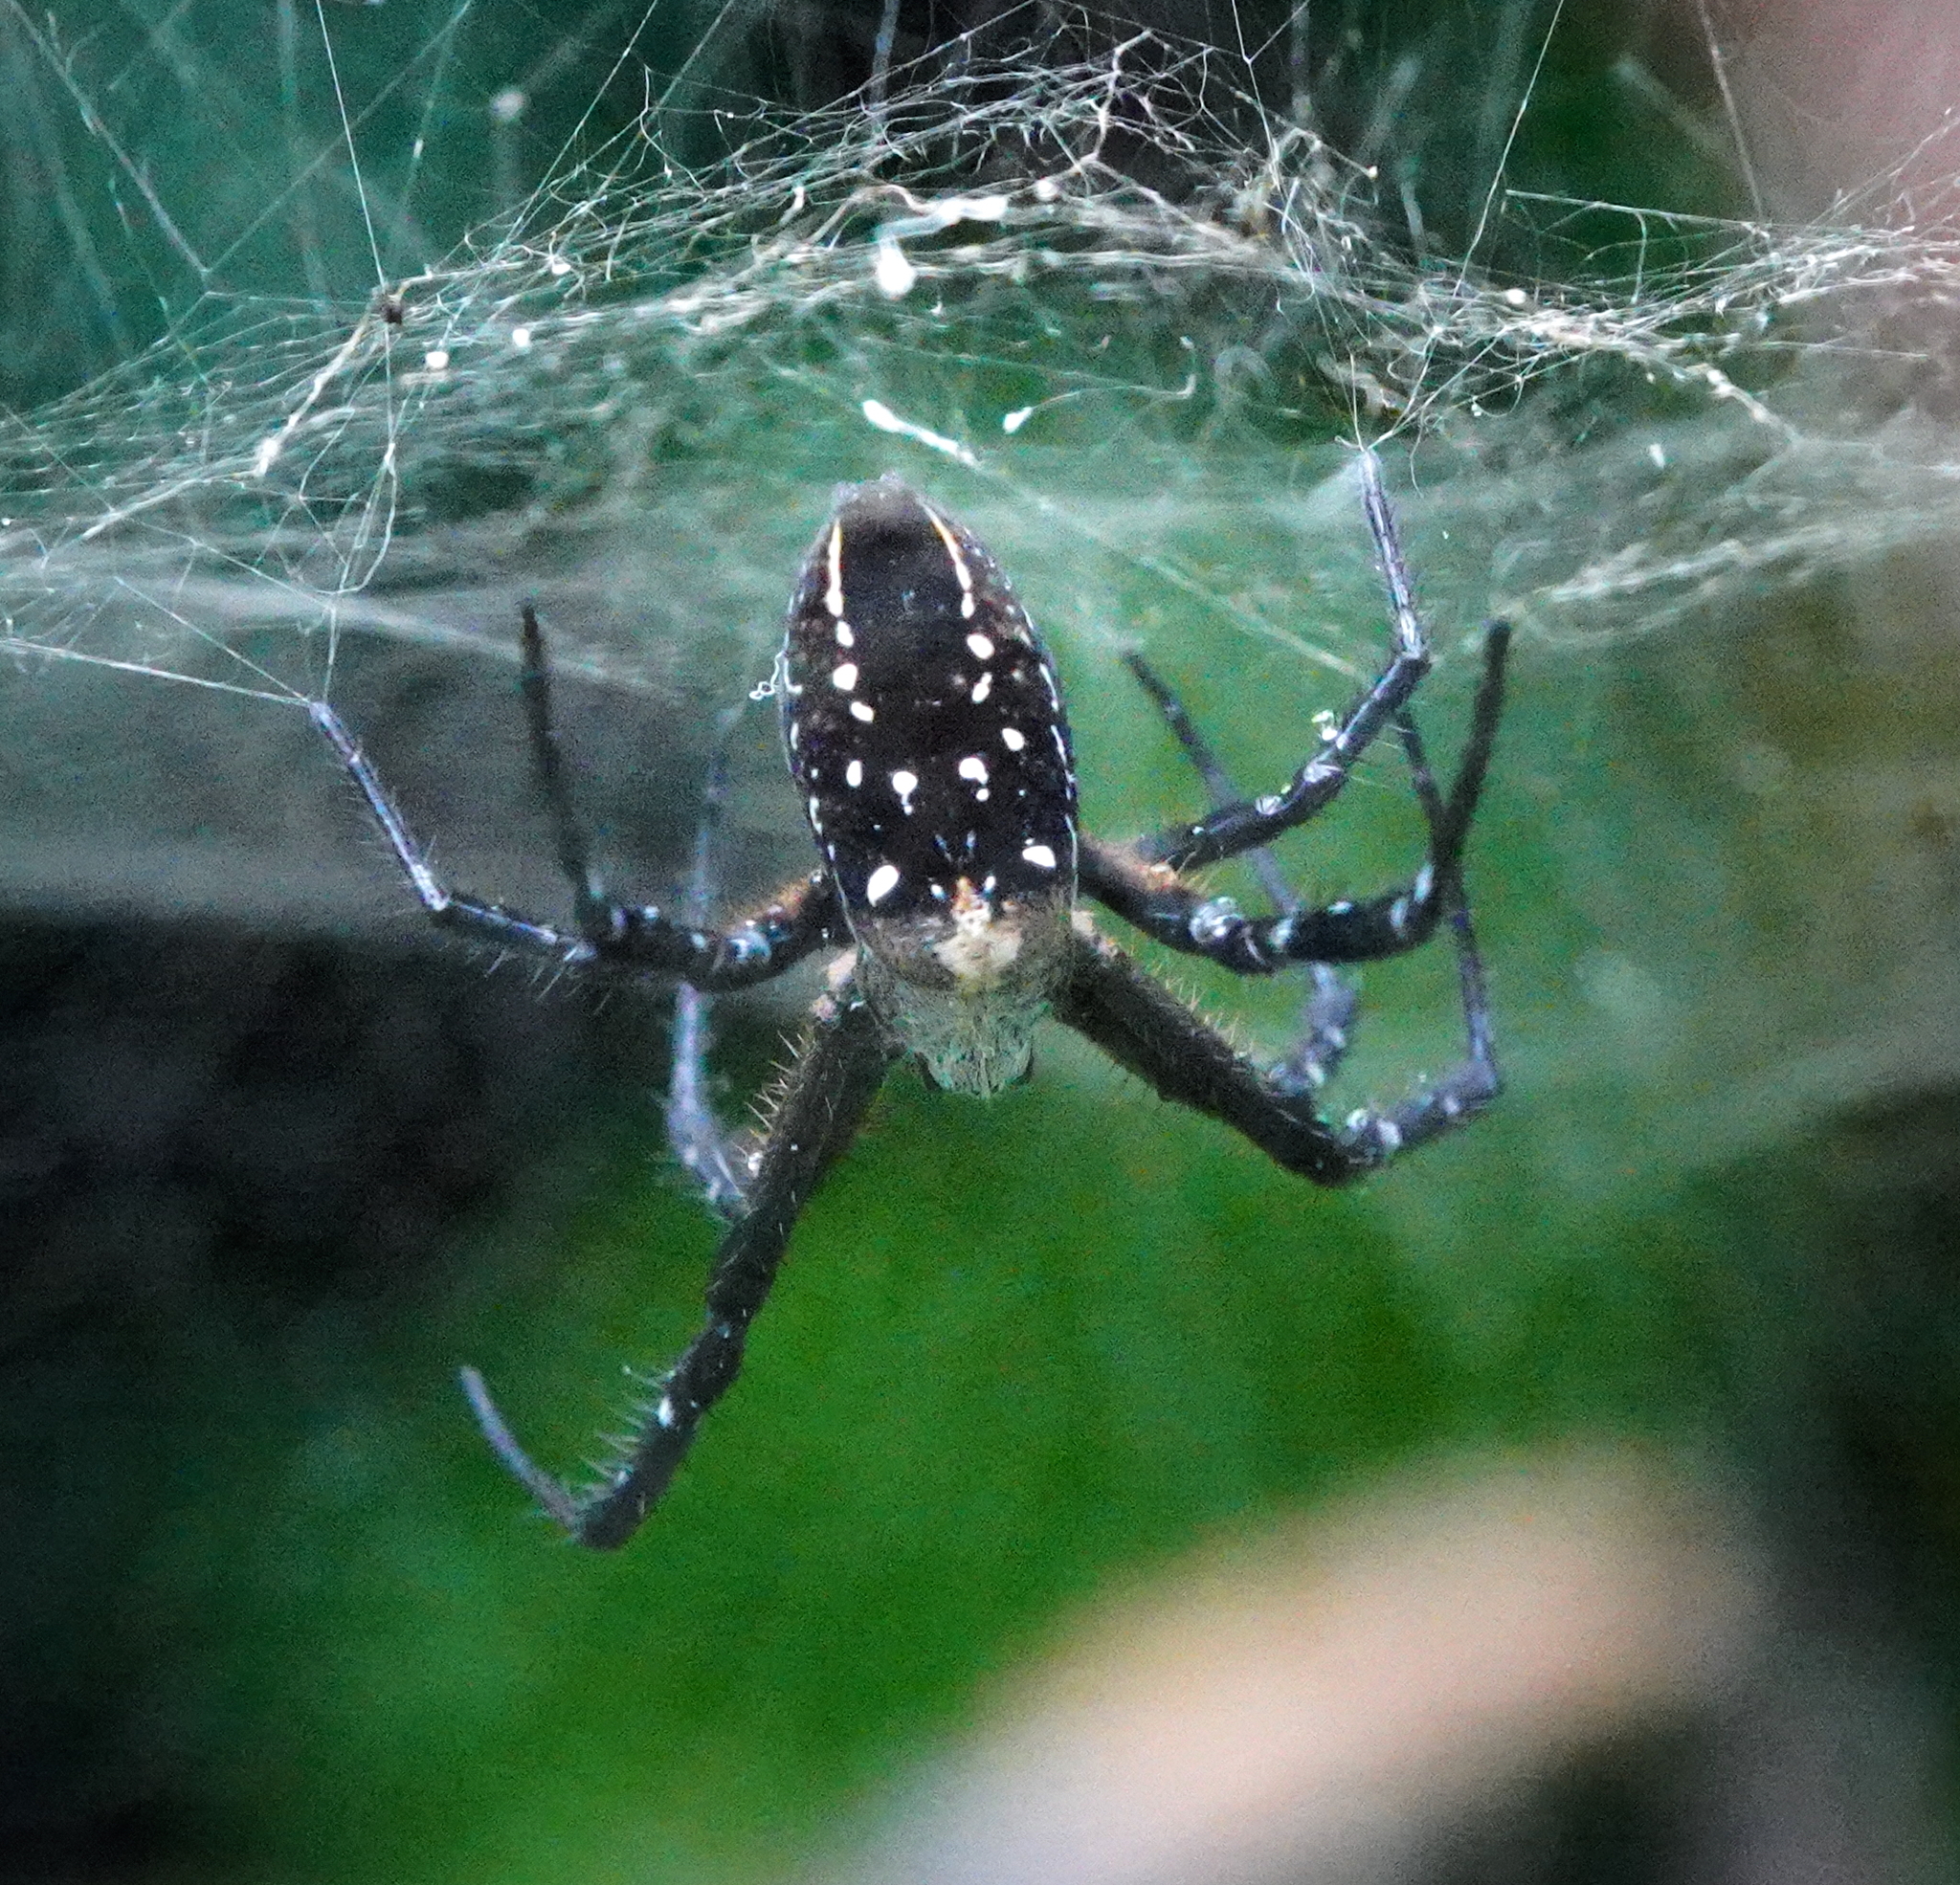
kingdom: Chromista
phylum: Ochrophyta
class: Dictyochophyceae
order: Pedinellales
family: Cyrtophoraceae
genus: Cyrtophora
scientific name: Cyrtophora moluccensis
